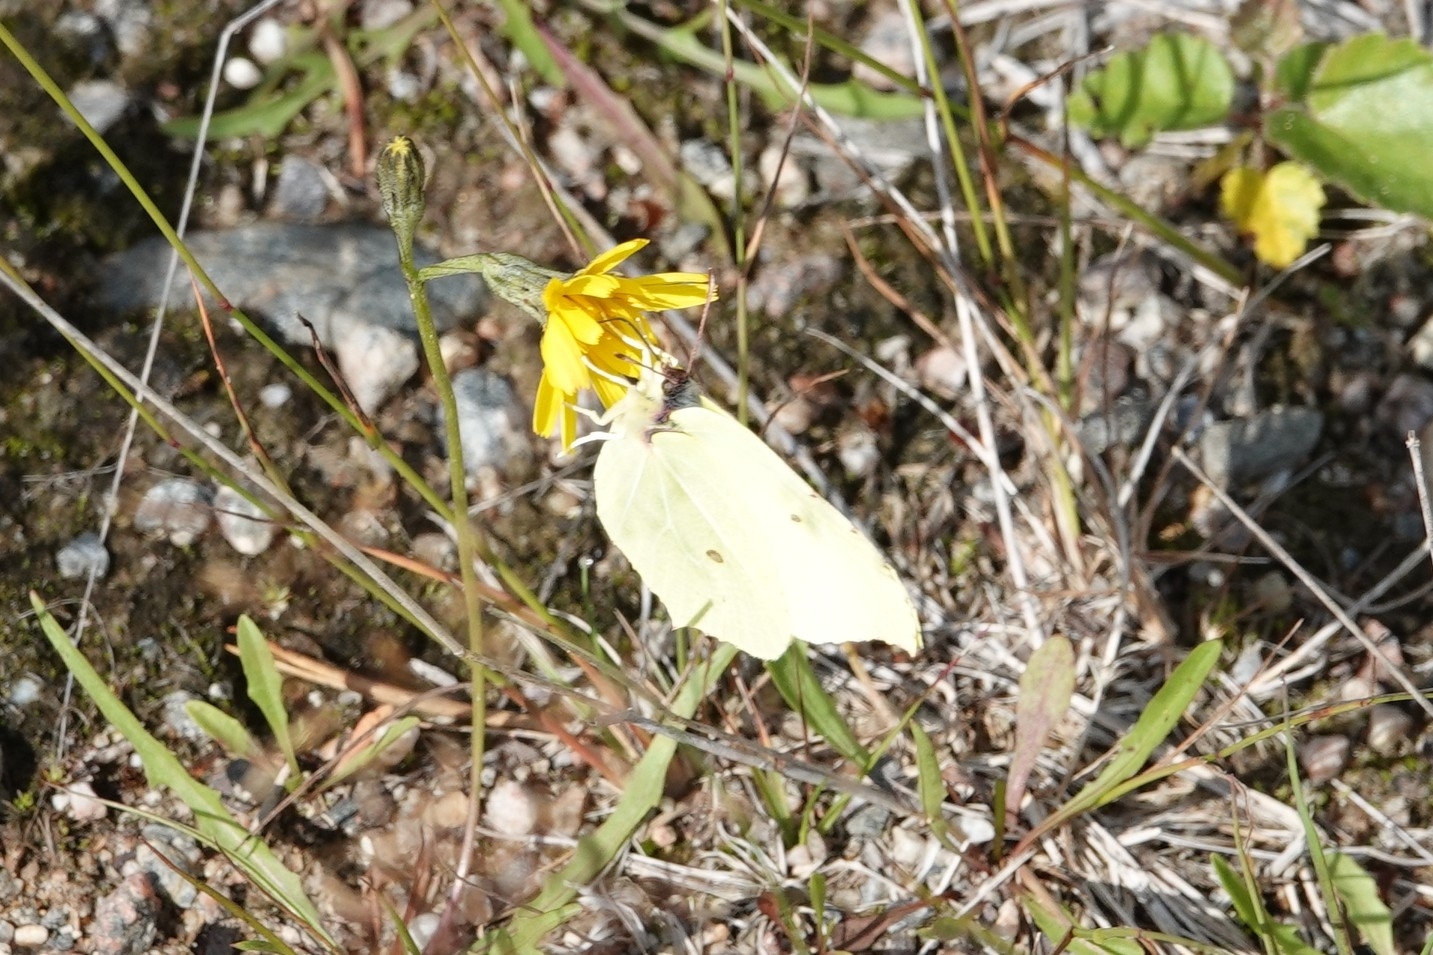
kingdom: Animalia
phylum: Arthropoda
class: Insecta
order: Lepidoptera
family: Pieridae
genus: Gonepteryx
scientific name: Gonepteryx rhamni
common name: Brimstone
